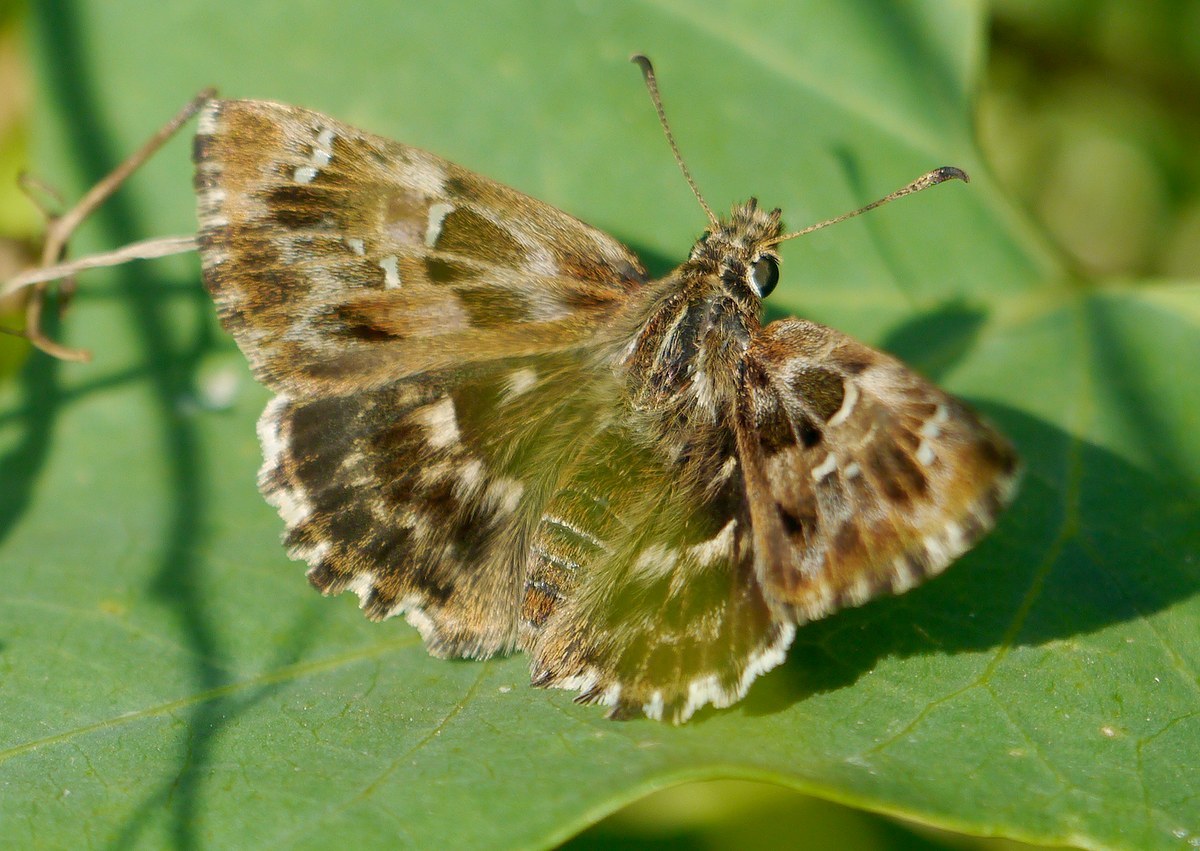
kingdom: Animalia
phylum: Arthropoda
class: Insecta
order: Lepidoptera
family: Hesperiidae
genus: Carcharodus
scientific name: Carcharodus alceae
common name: Mallow skipper
